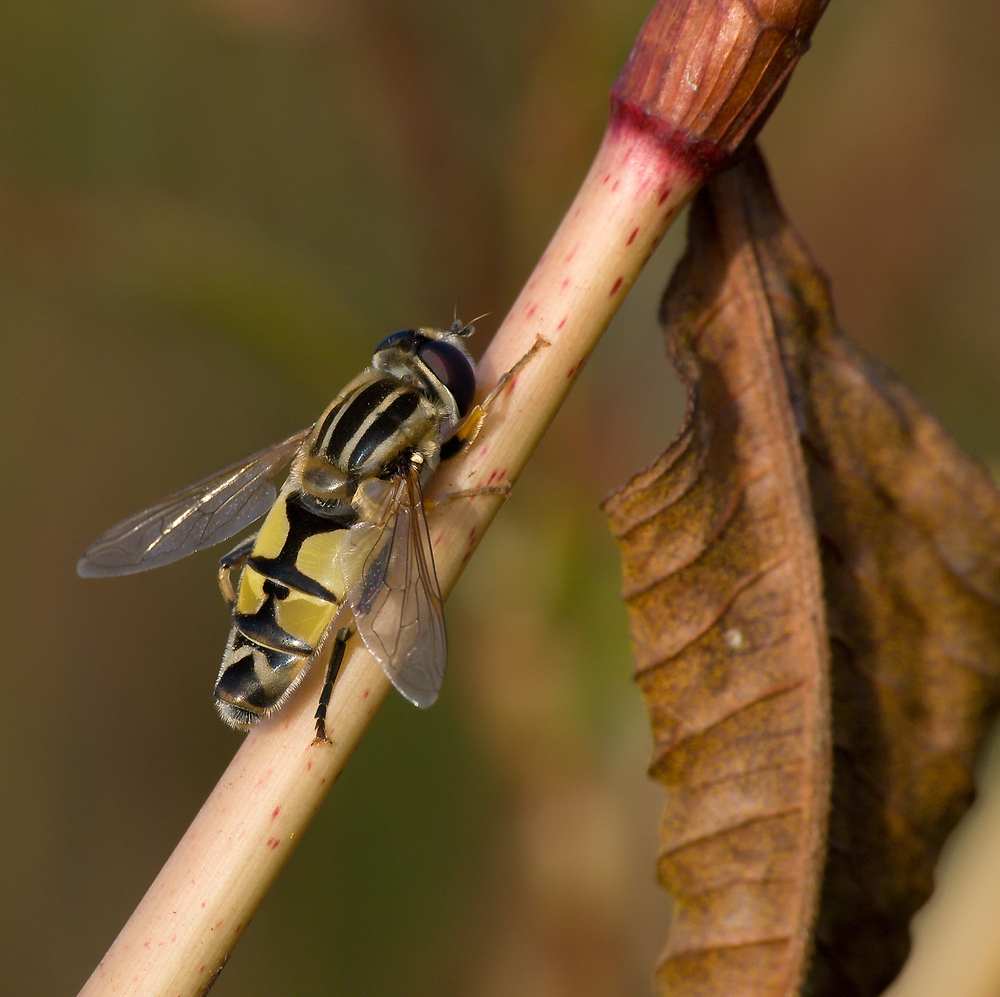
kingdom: Animalia
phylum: Arthropoda
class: Insecta
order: Diptera
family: Syrphidae
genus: Helophilus
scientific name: Helophilus trivittatus
